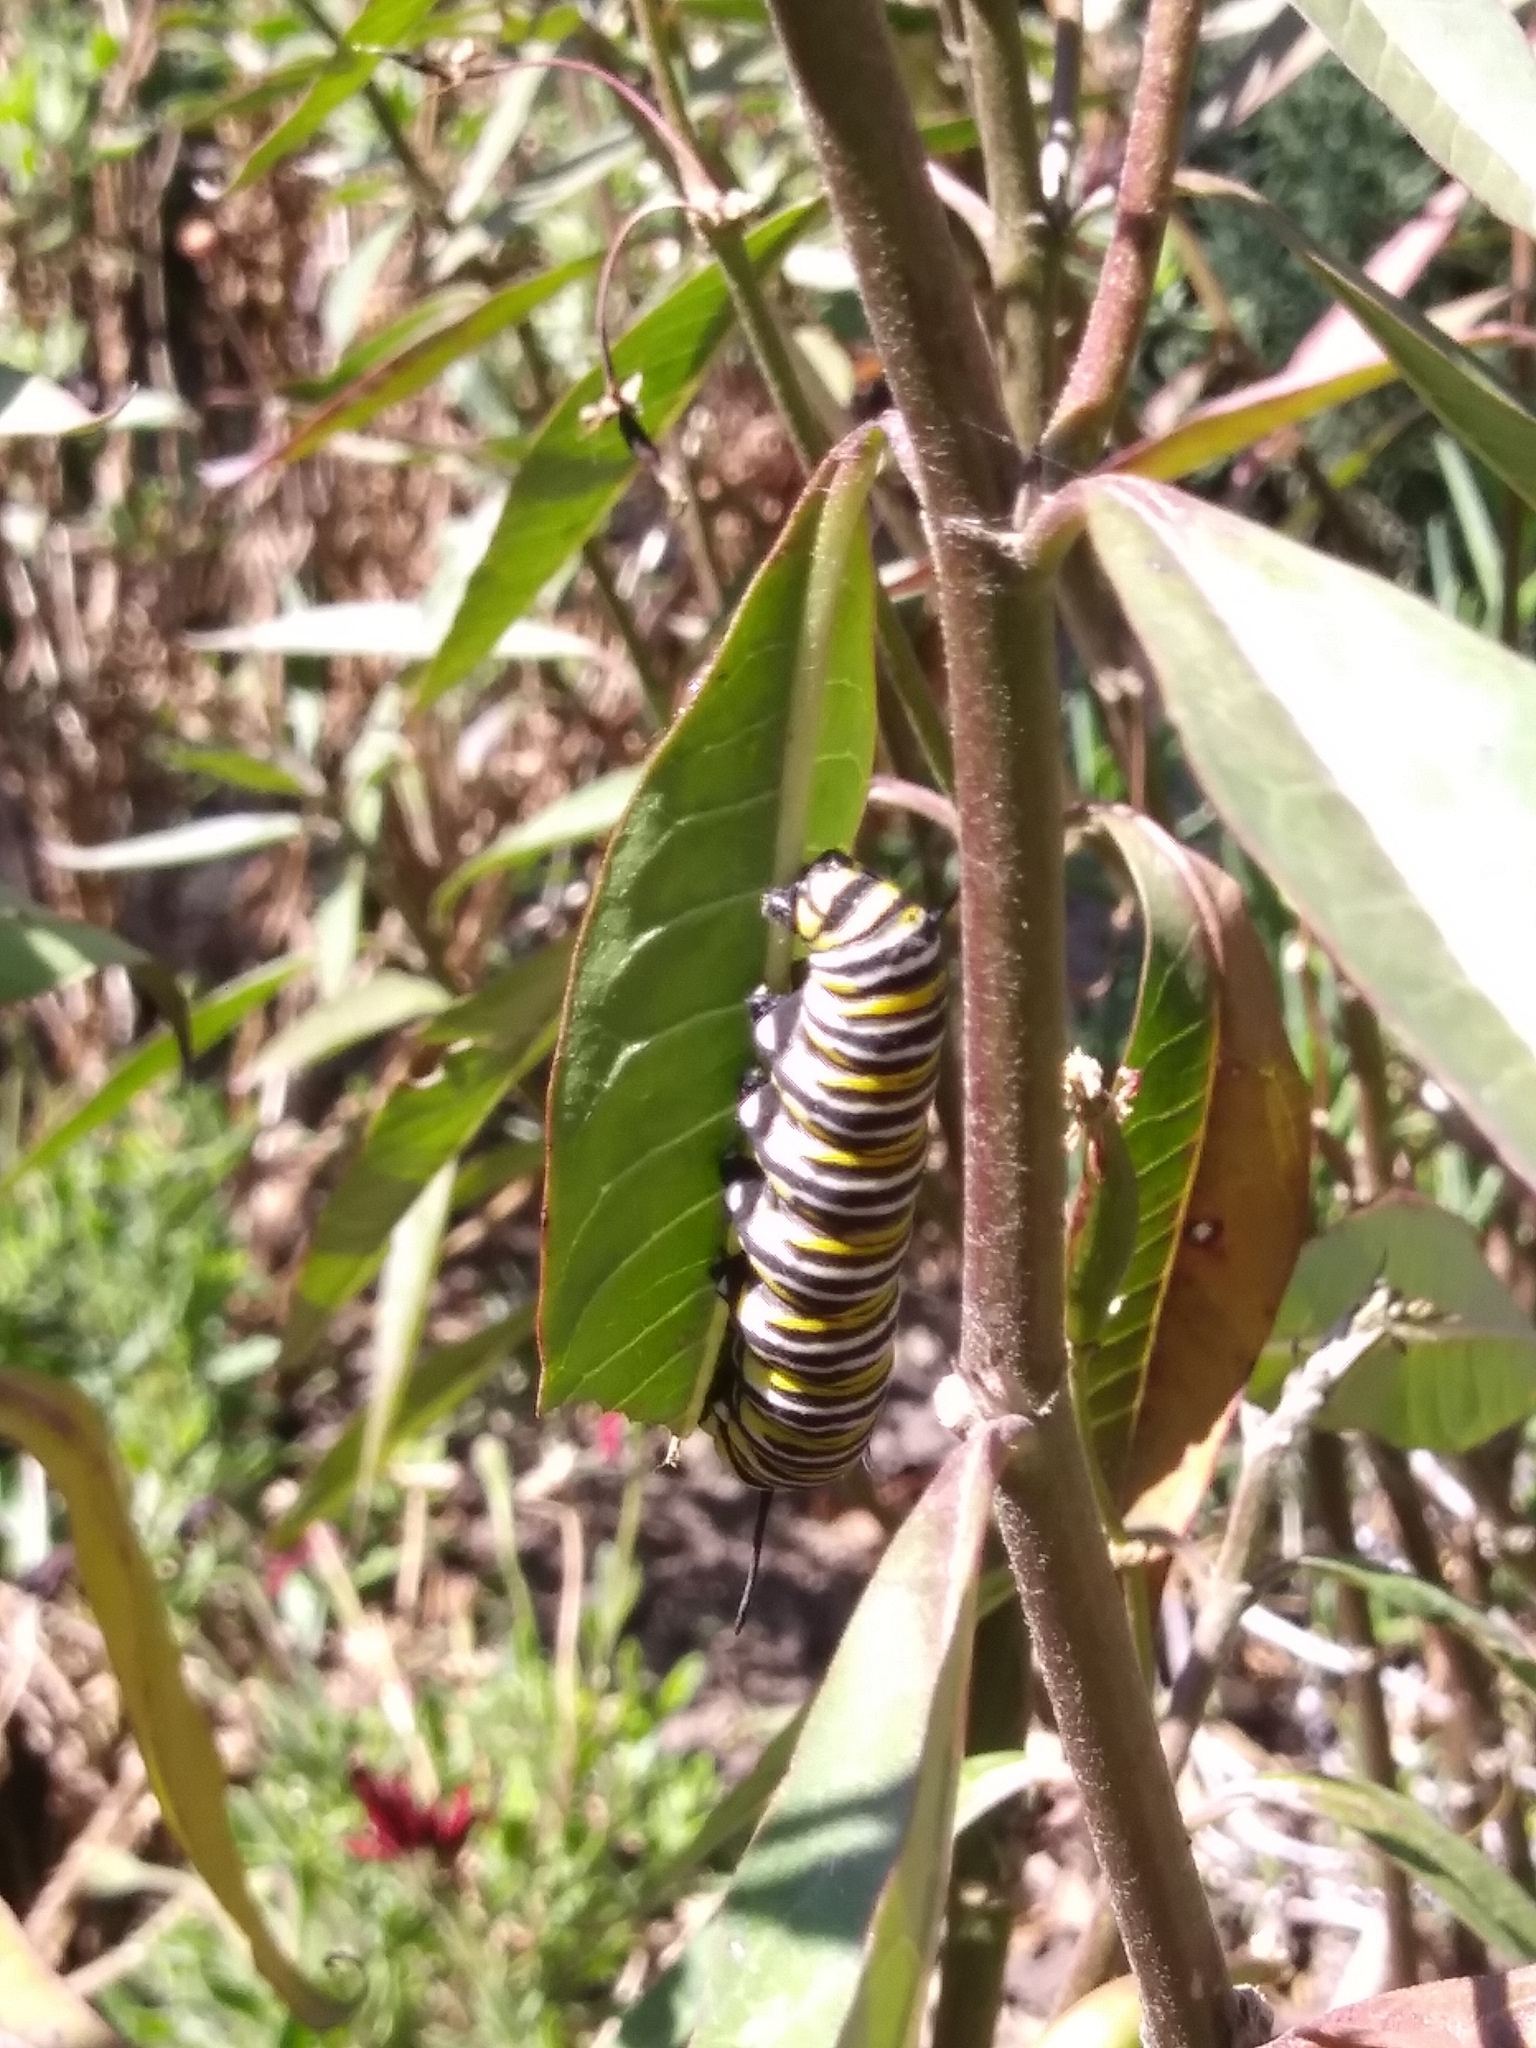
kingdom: Animalia
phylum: Arthropoda
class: Insecta
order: Lepidoptera
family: Nymphalidae
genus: Danaus
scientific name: Danaus plexippus
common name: Monarch
